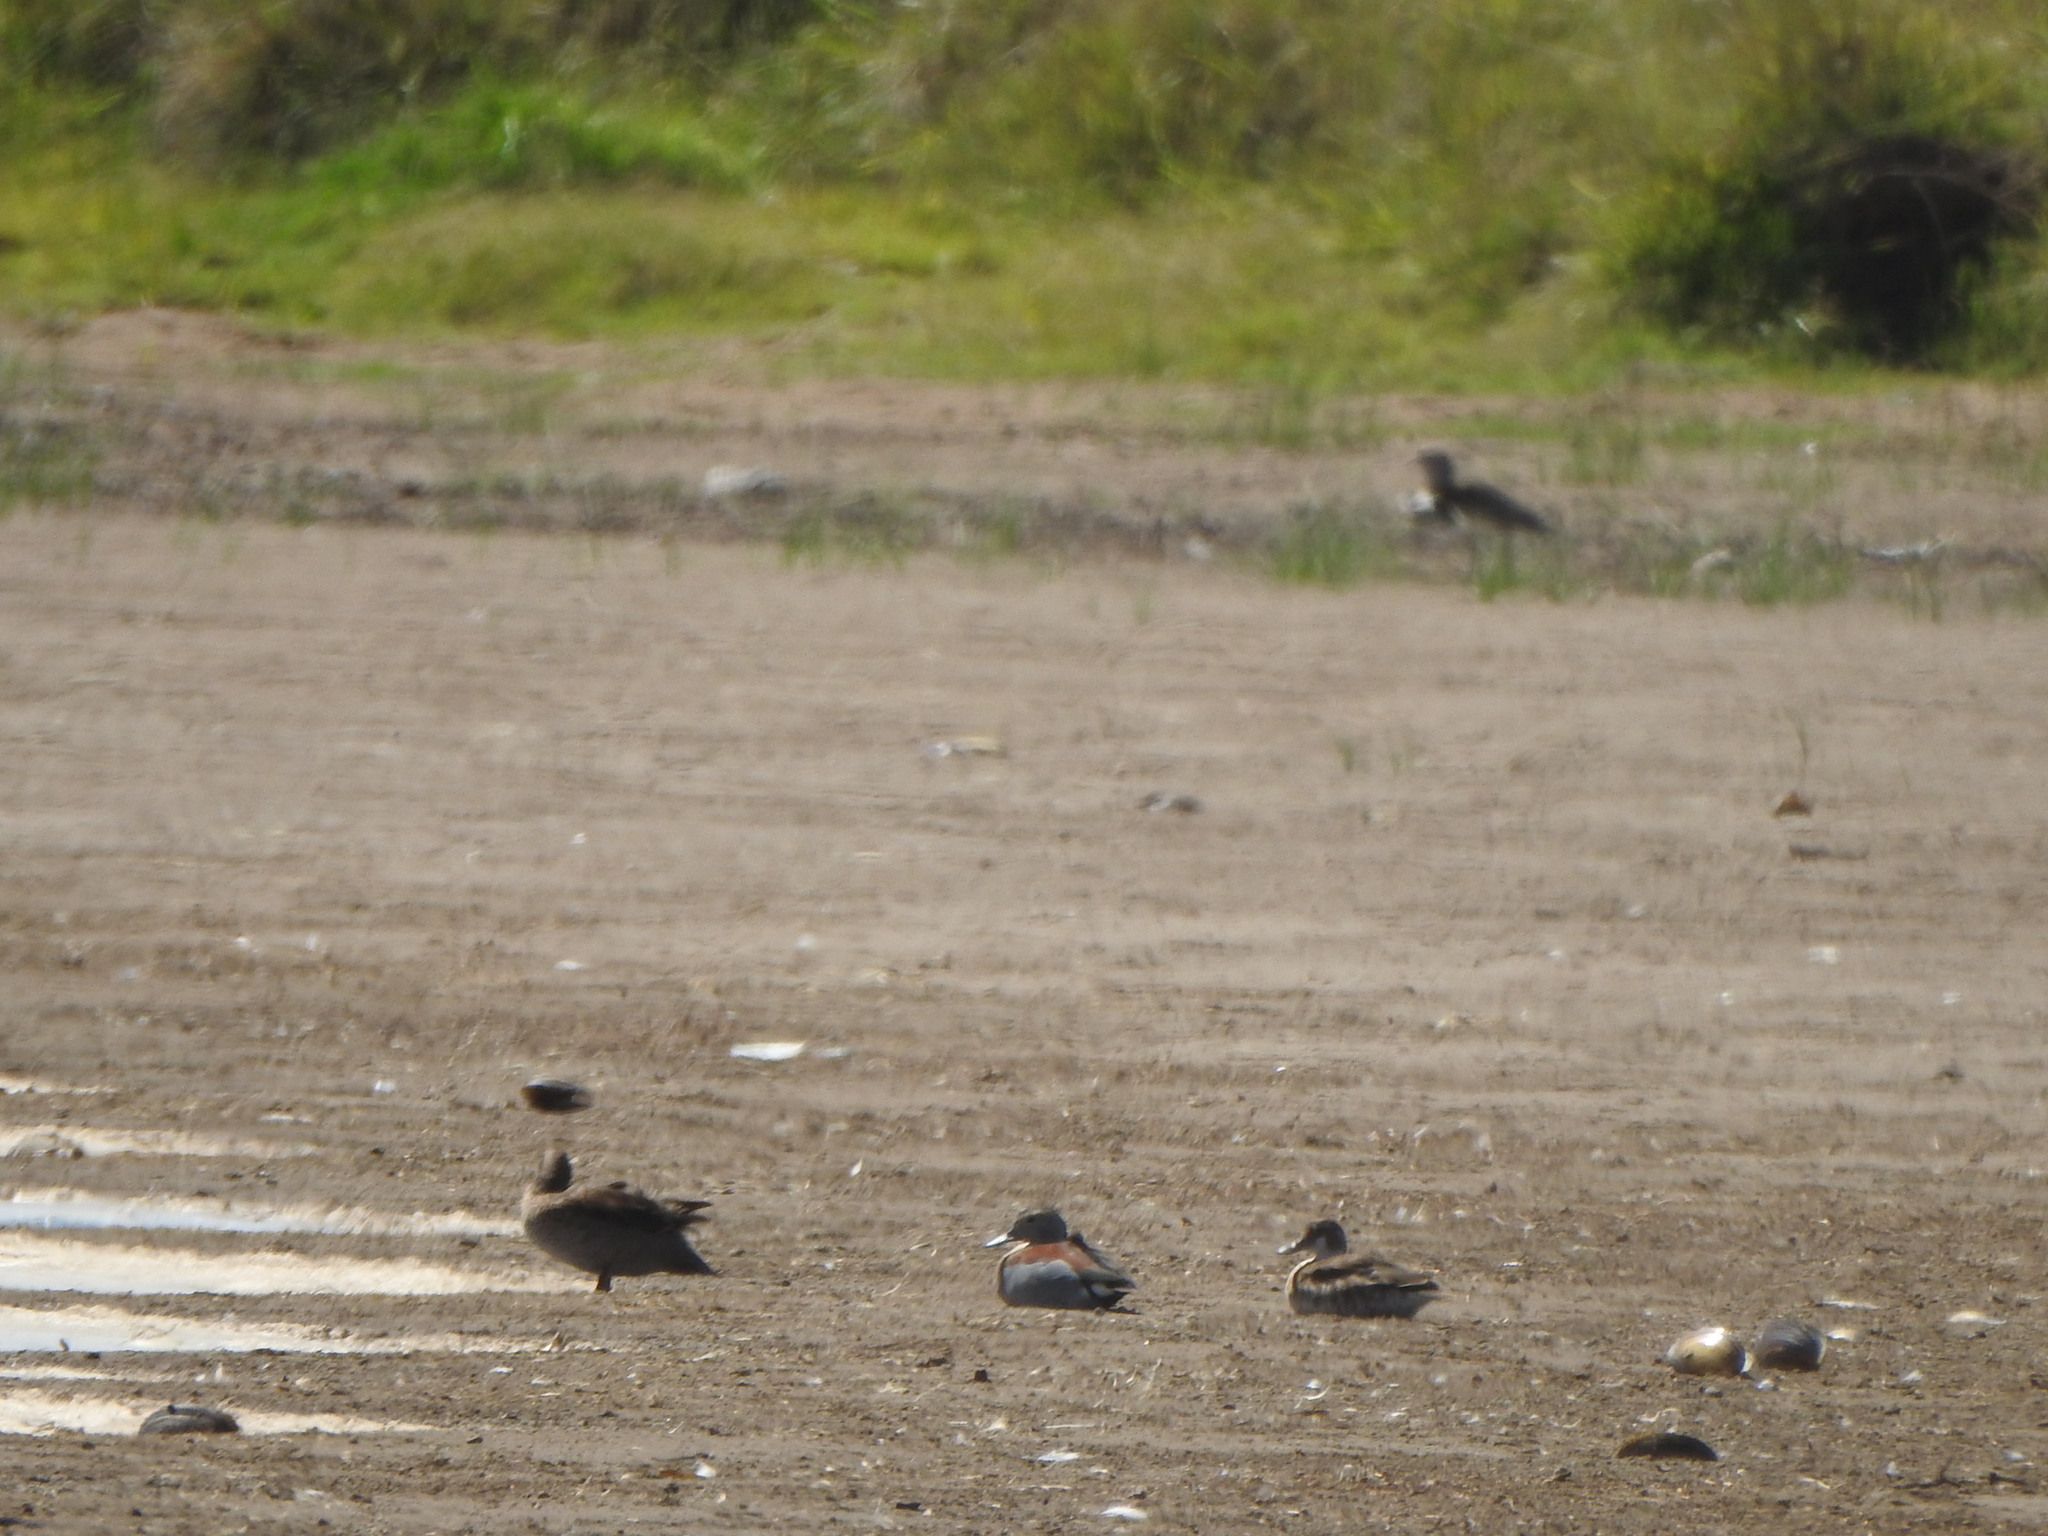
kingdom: Animalia
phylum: Chordata
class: Aves
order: Anseriformes
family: Anatidae
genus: Callonetta
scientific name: Callonetta leucophrys
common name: Ringed teal
